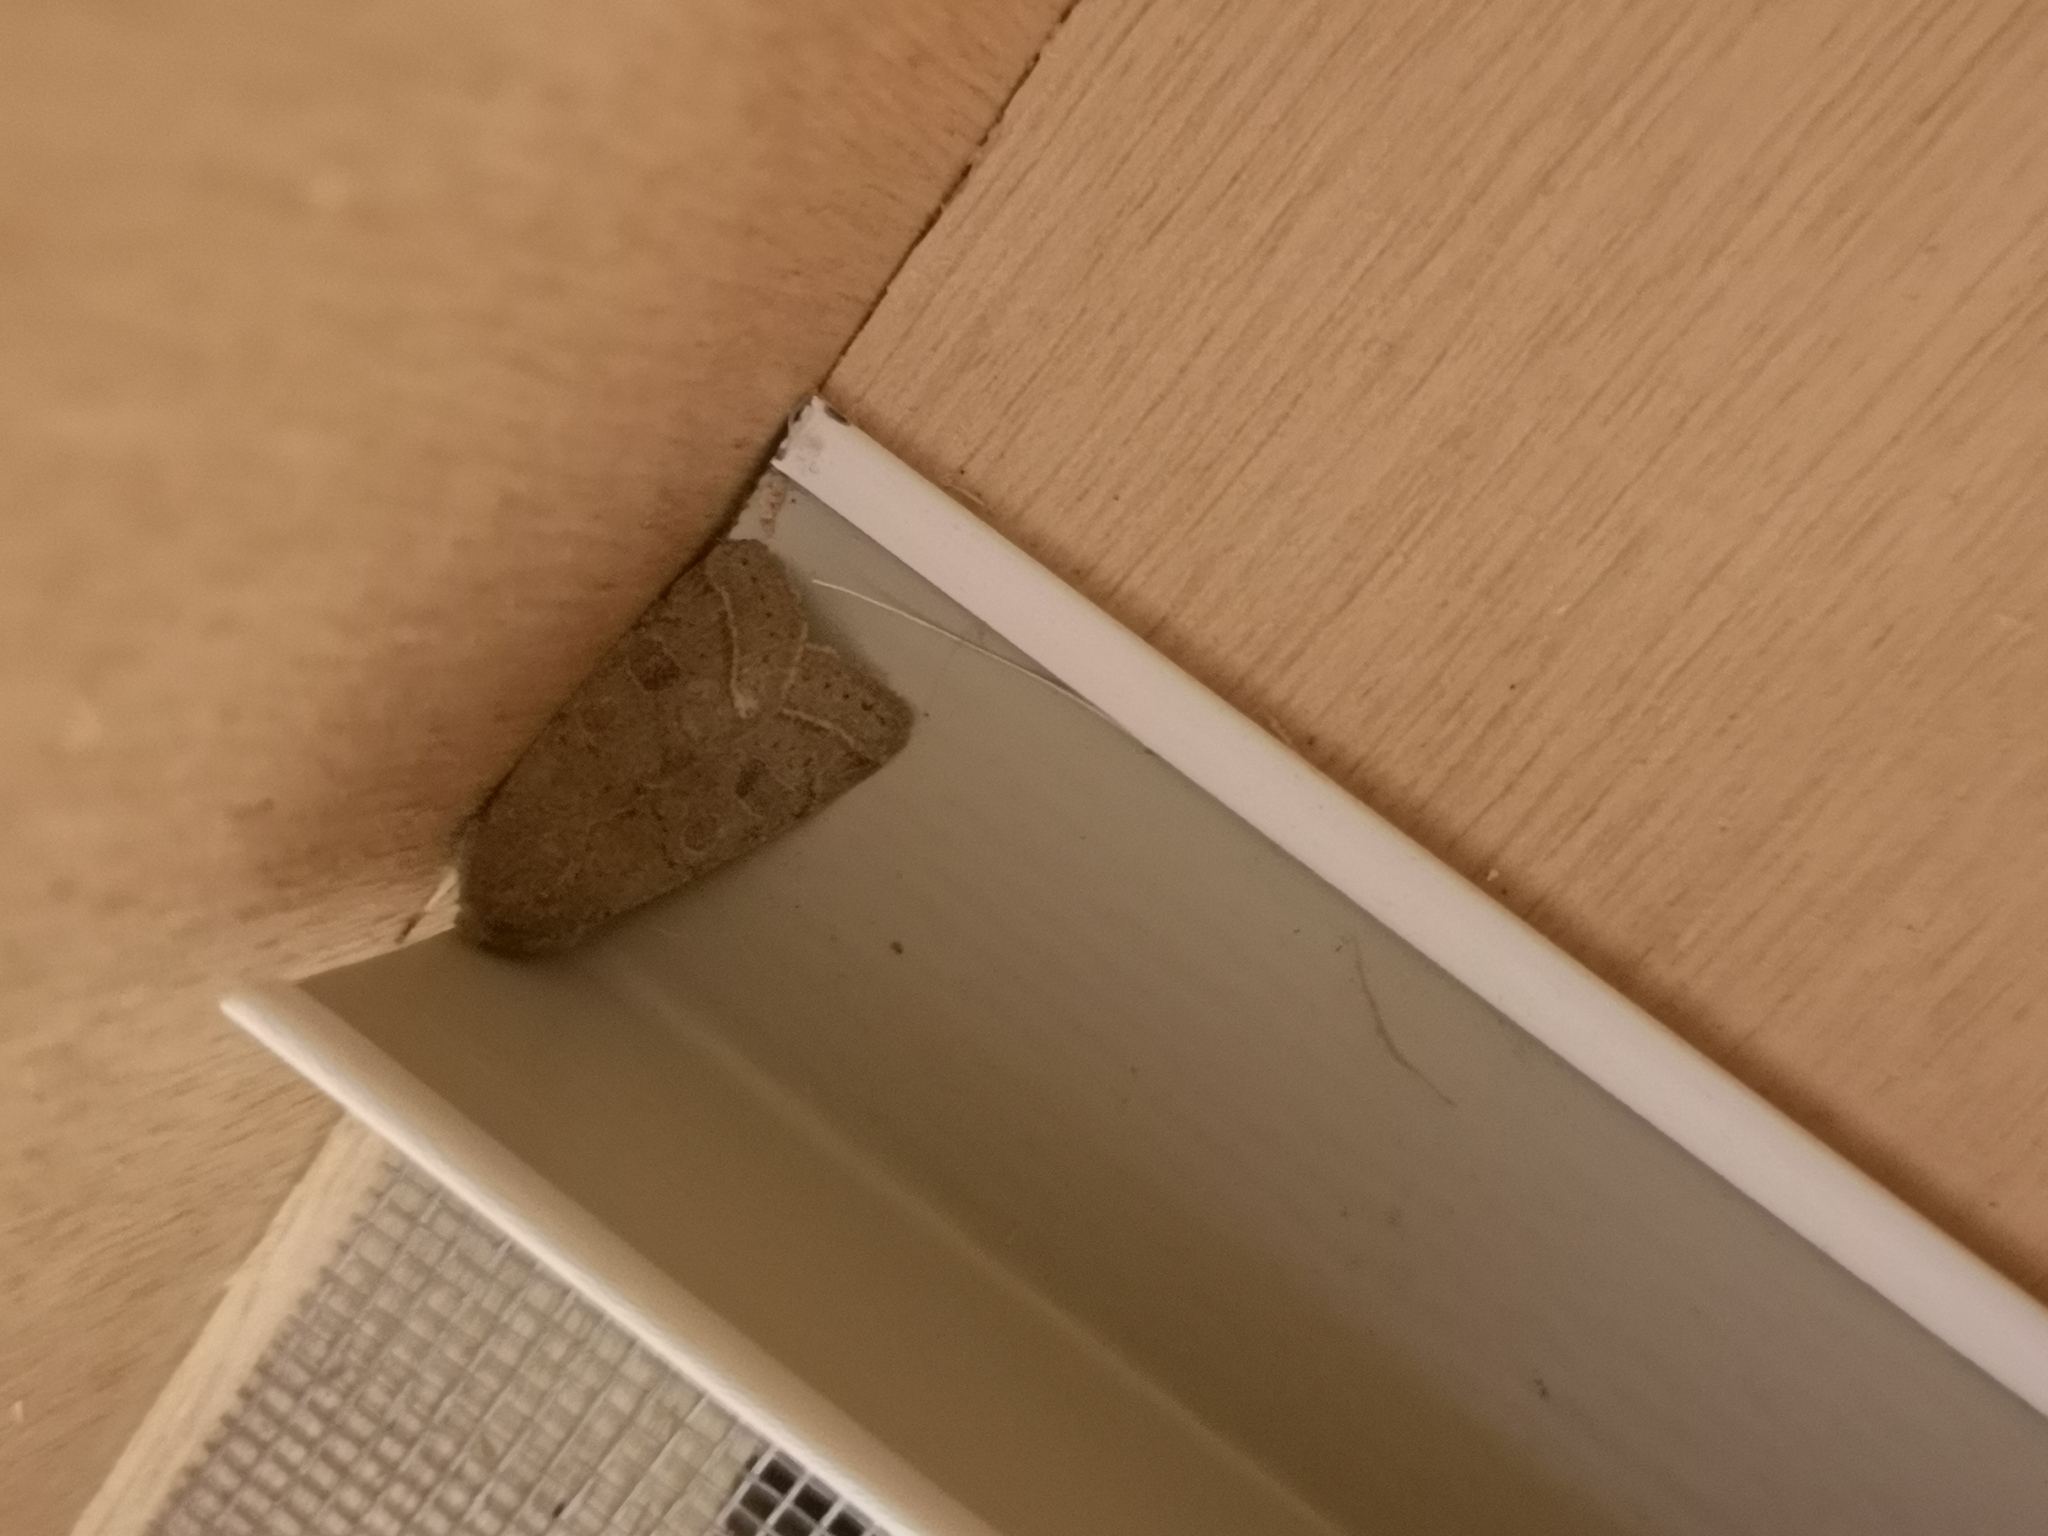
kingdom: Animalia
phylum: Arthropoda
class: Insecta
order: Lepidoptera
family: Noctuidae
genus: Orthosia
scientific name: Orthosia cerasi
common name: Common quaker
